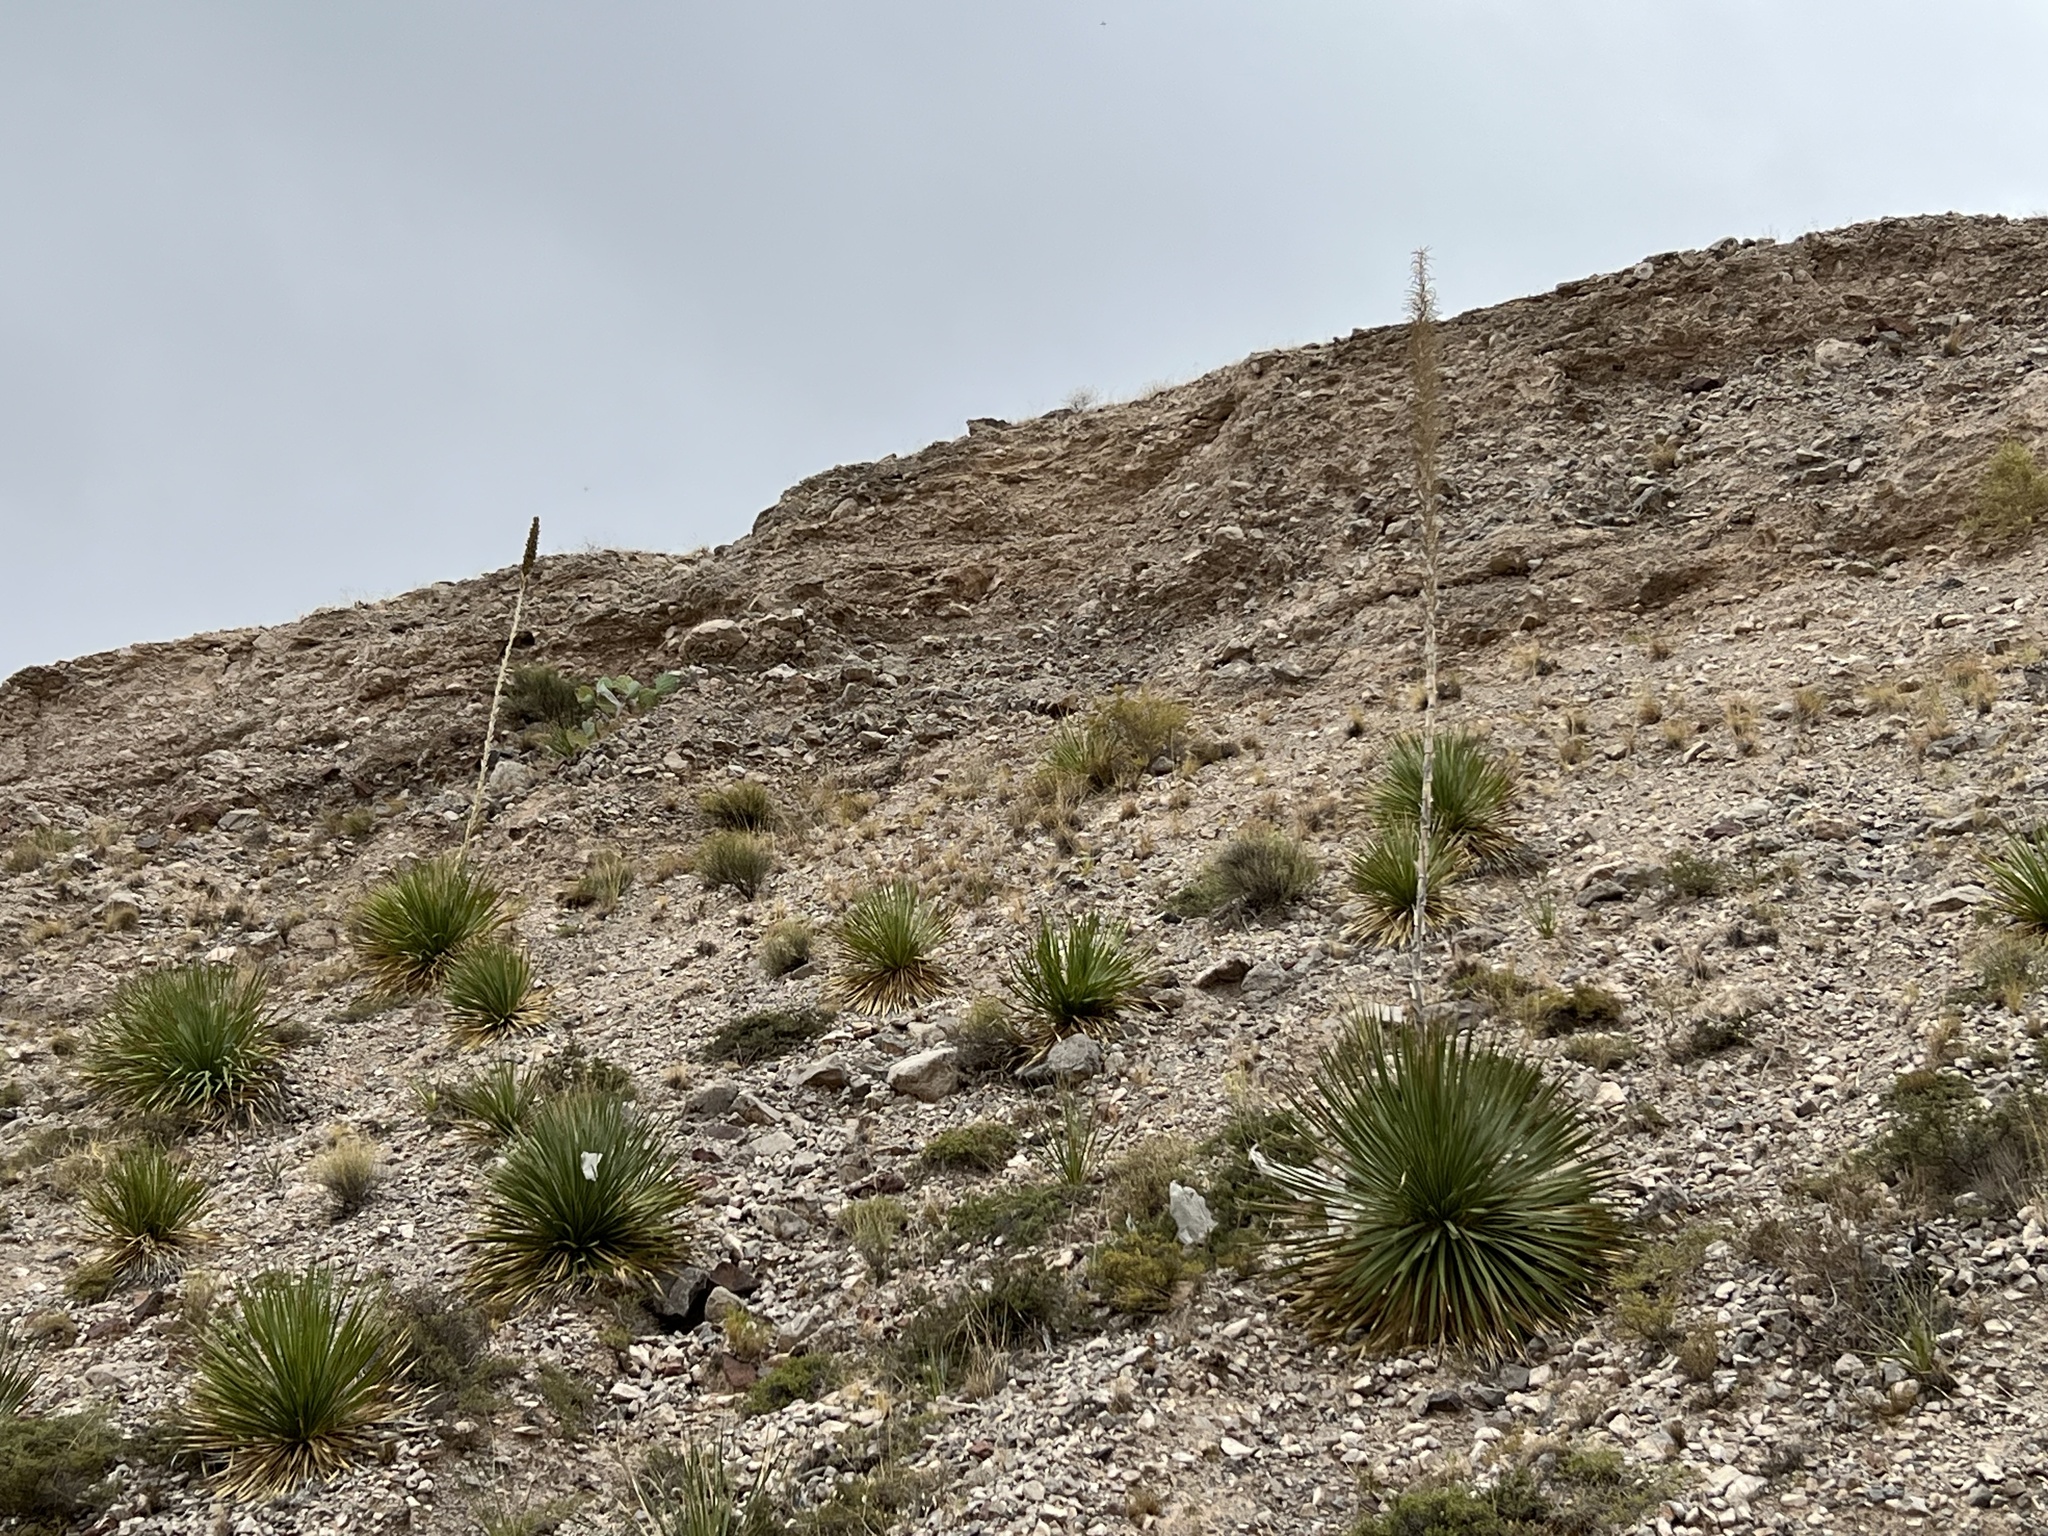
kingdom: Plantae
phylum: Tracheophyta
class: Liliopsida
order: Asparagales
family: Asparagaceae
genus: Dasylirion
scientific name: Dasylirion wheeleri
